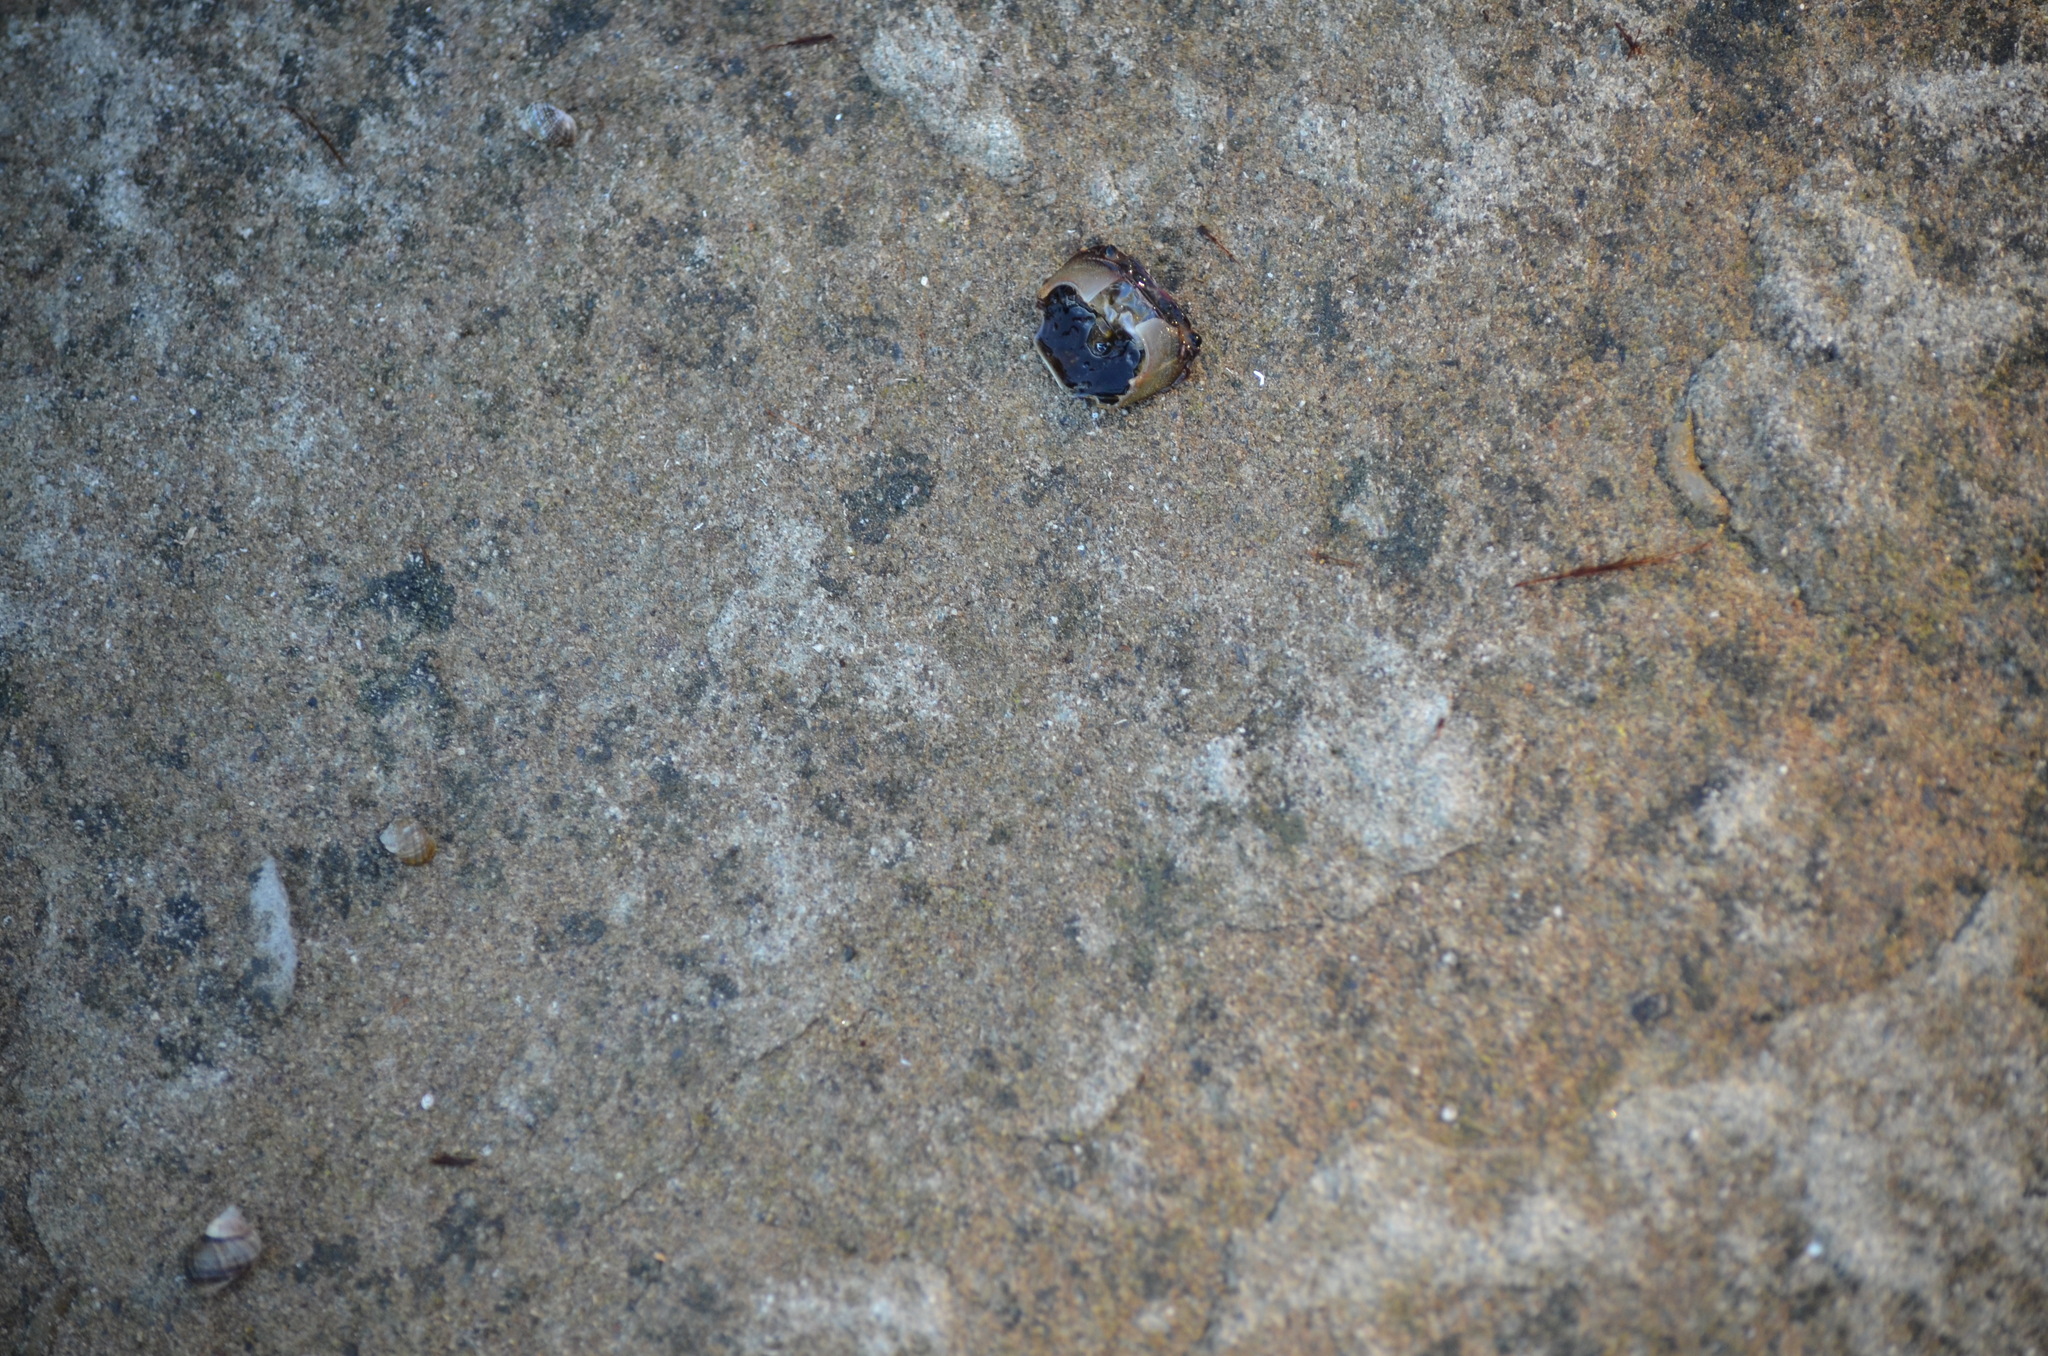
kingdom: Animalia
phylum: Arthropoda
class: Malacostraca
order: Decapoda
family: Varunidae
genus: Hemigrapsus
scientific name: Hemigrapsus nudus
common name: Purple shore crab
